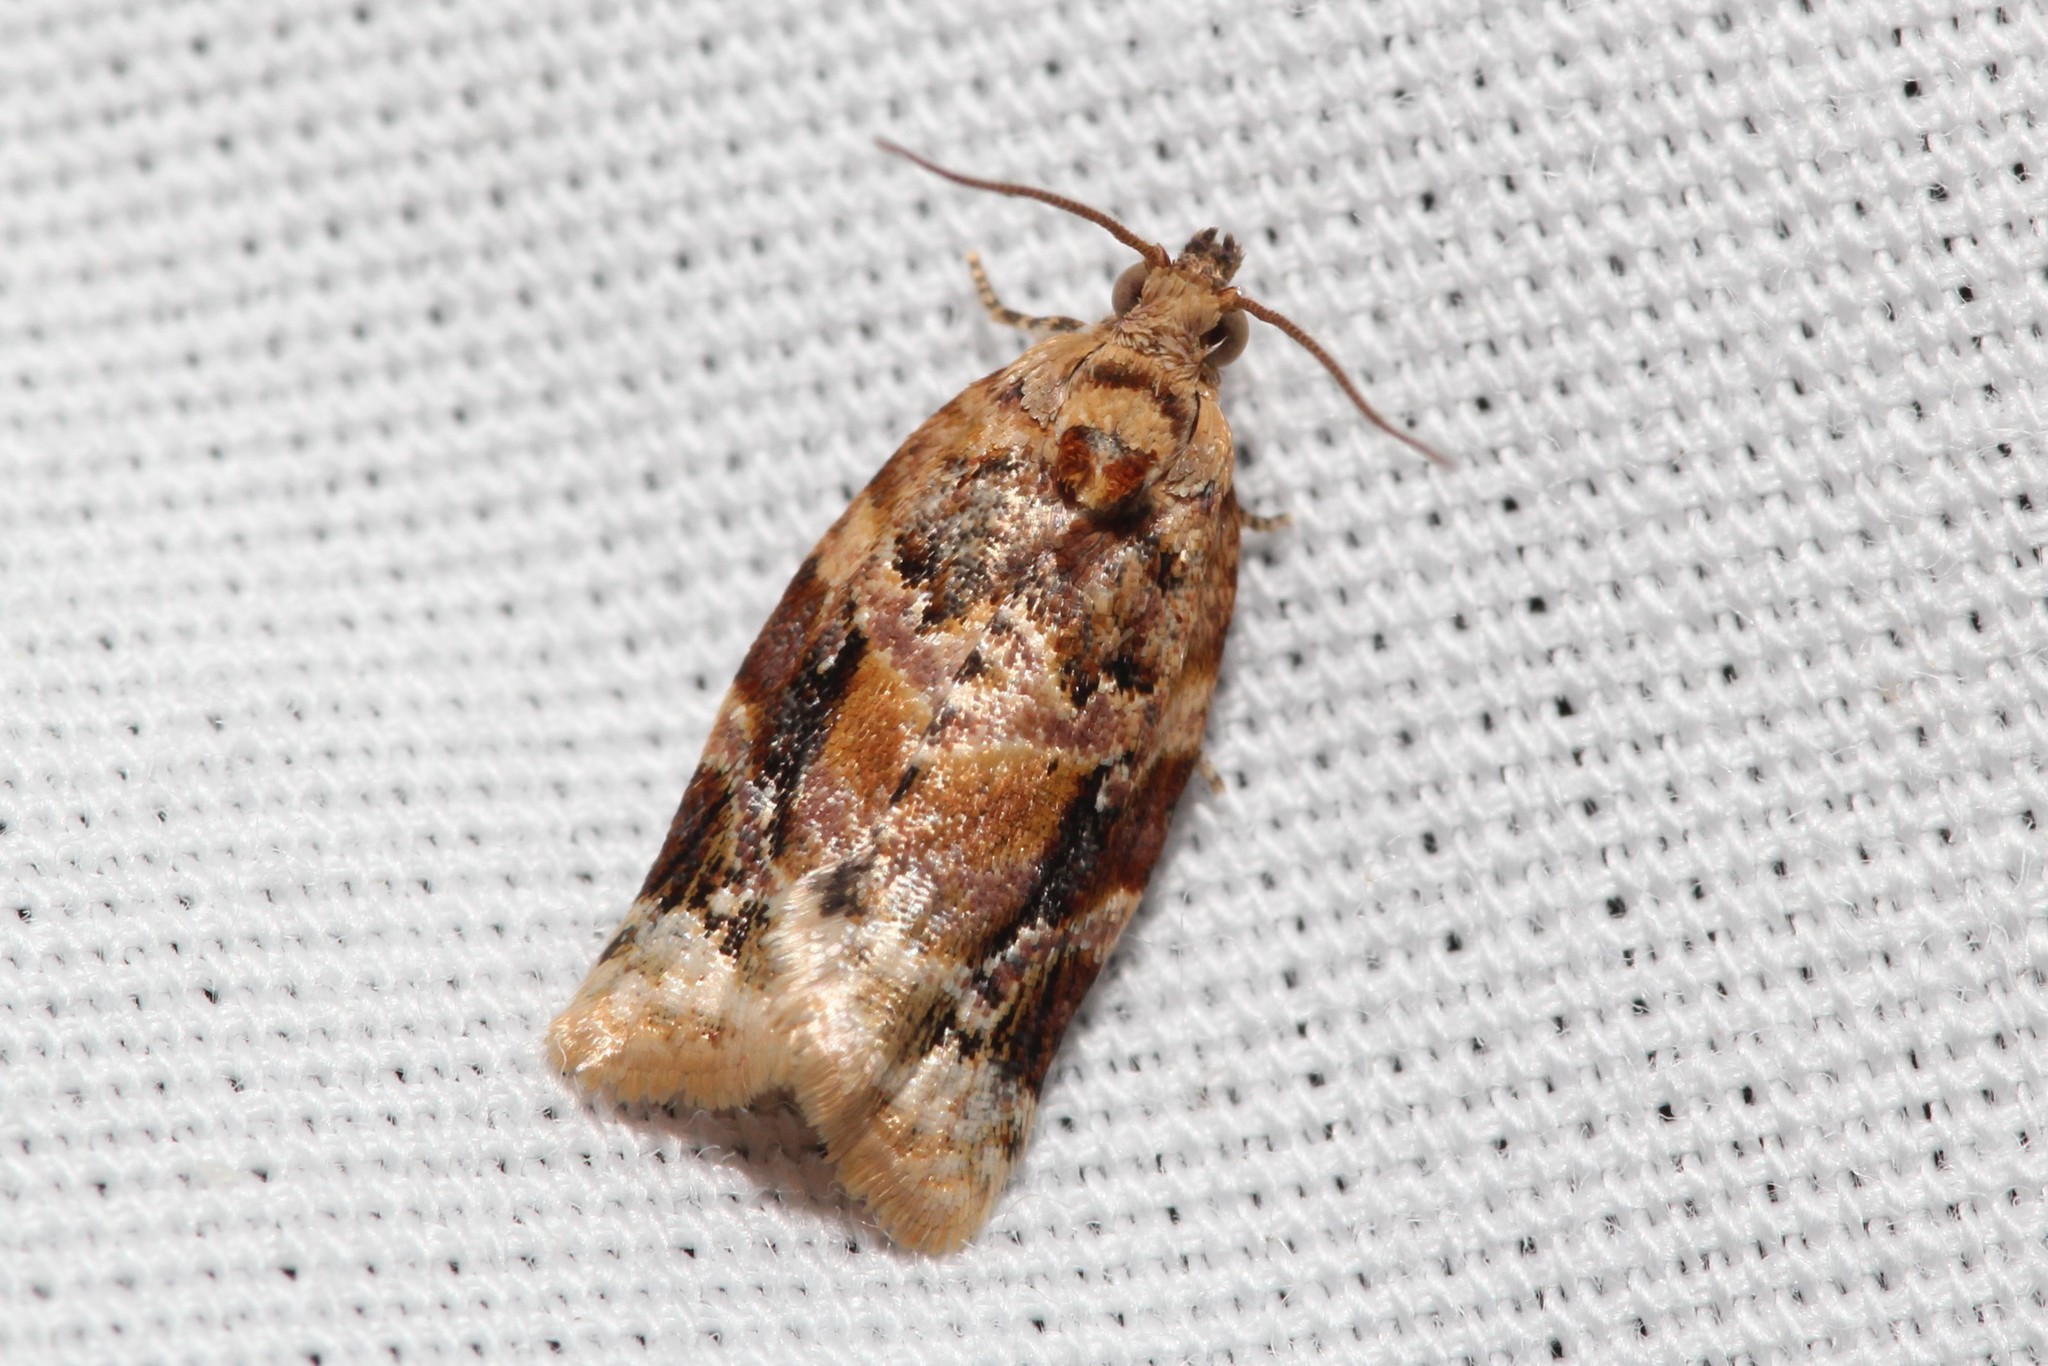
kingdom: Animalia
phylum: Arthropoda
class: Insecta
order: Lepidoptera
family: Tortricidae
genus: Argyrotaenia
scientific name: Argyrotaenia velutinana
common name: Red-banded leafroller moth
